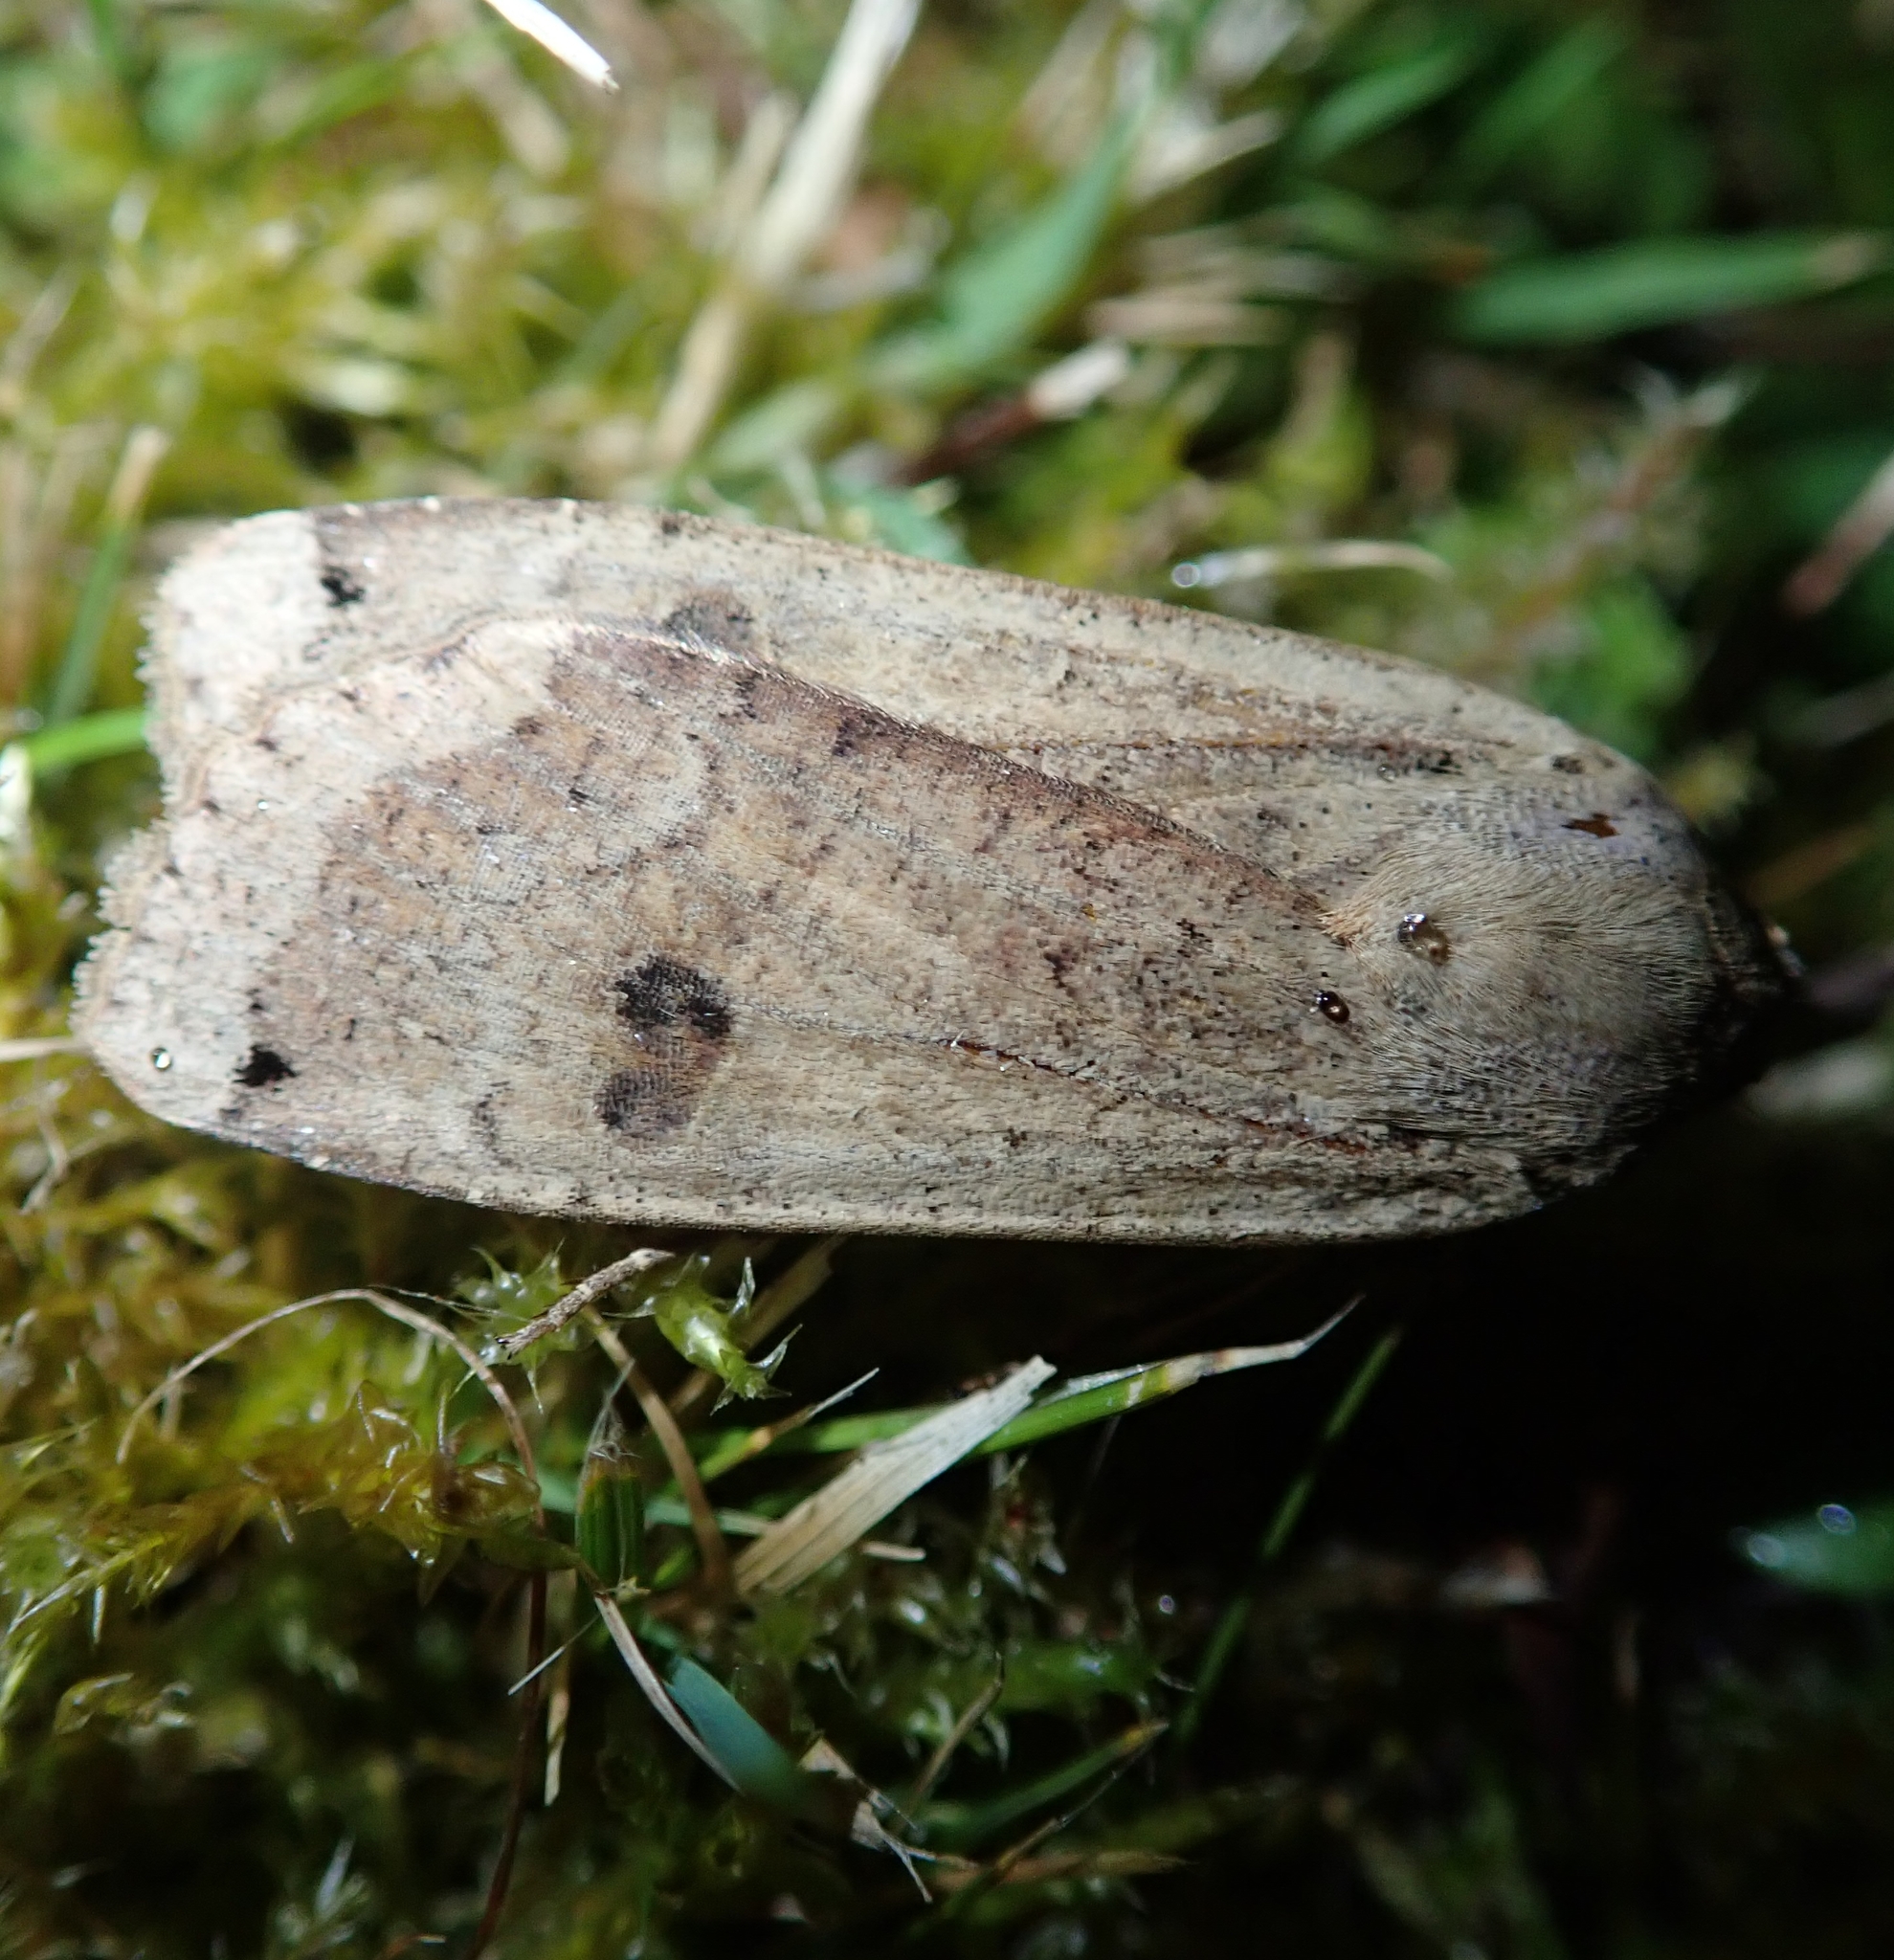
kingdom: Animalia
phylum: Arthropoda
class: Insecta
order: Lepidoptera
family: Noctuidae
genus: Noctua
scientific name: Noctua pronuba
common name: Large yellow underwing
